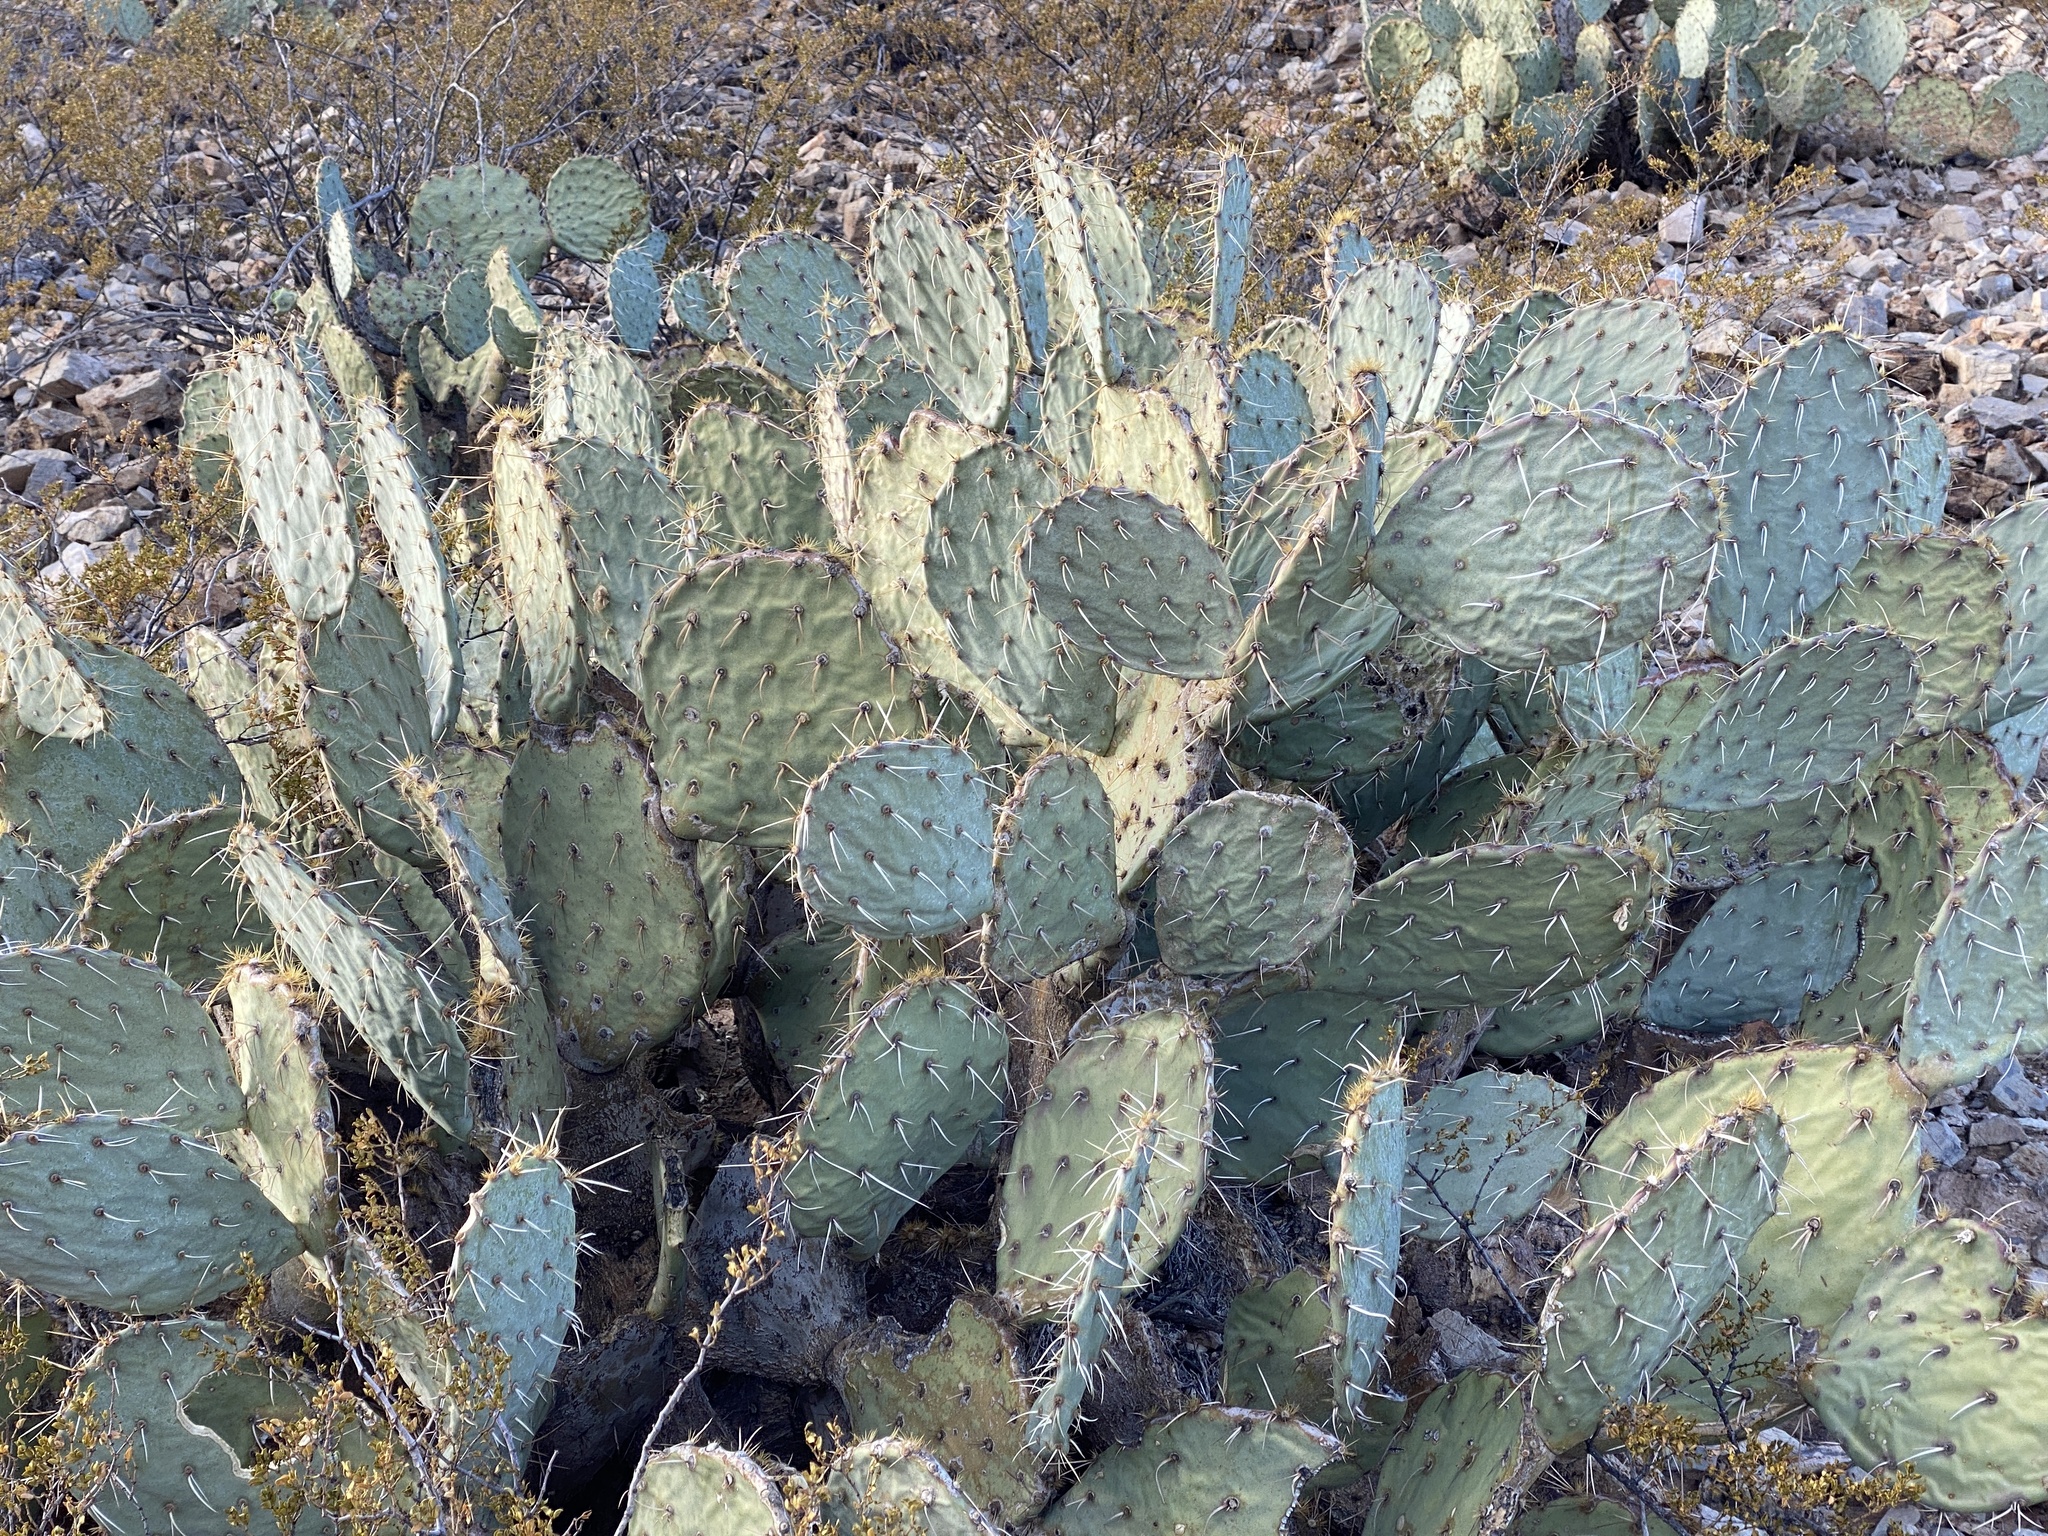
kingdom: Plantae
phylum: Tracheophyta
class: Magnoliopsida
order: Caryophyllales
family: Cactaceae
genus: Opuntia
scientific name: Opuntia engelmannii
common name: Cactus-apple
